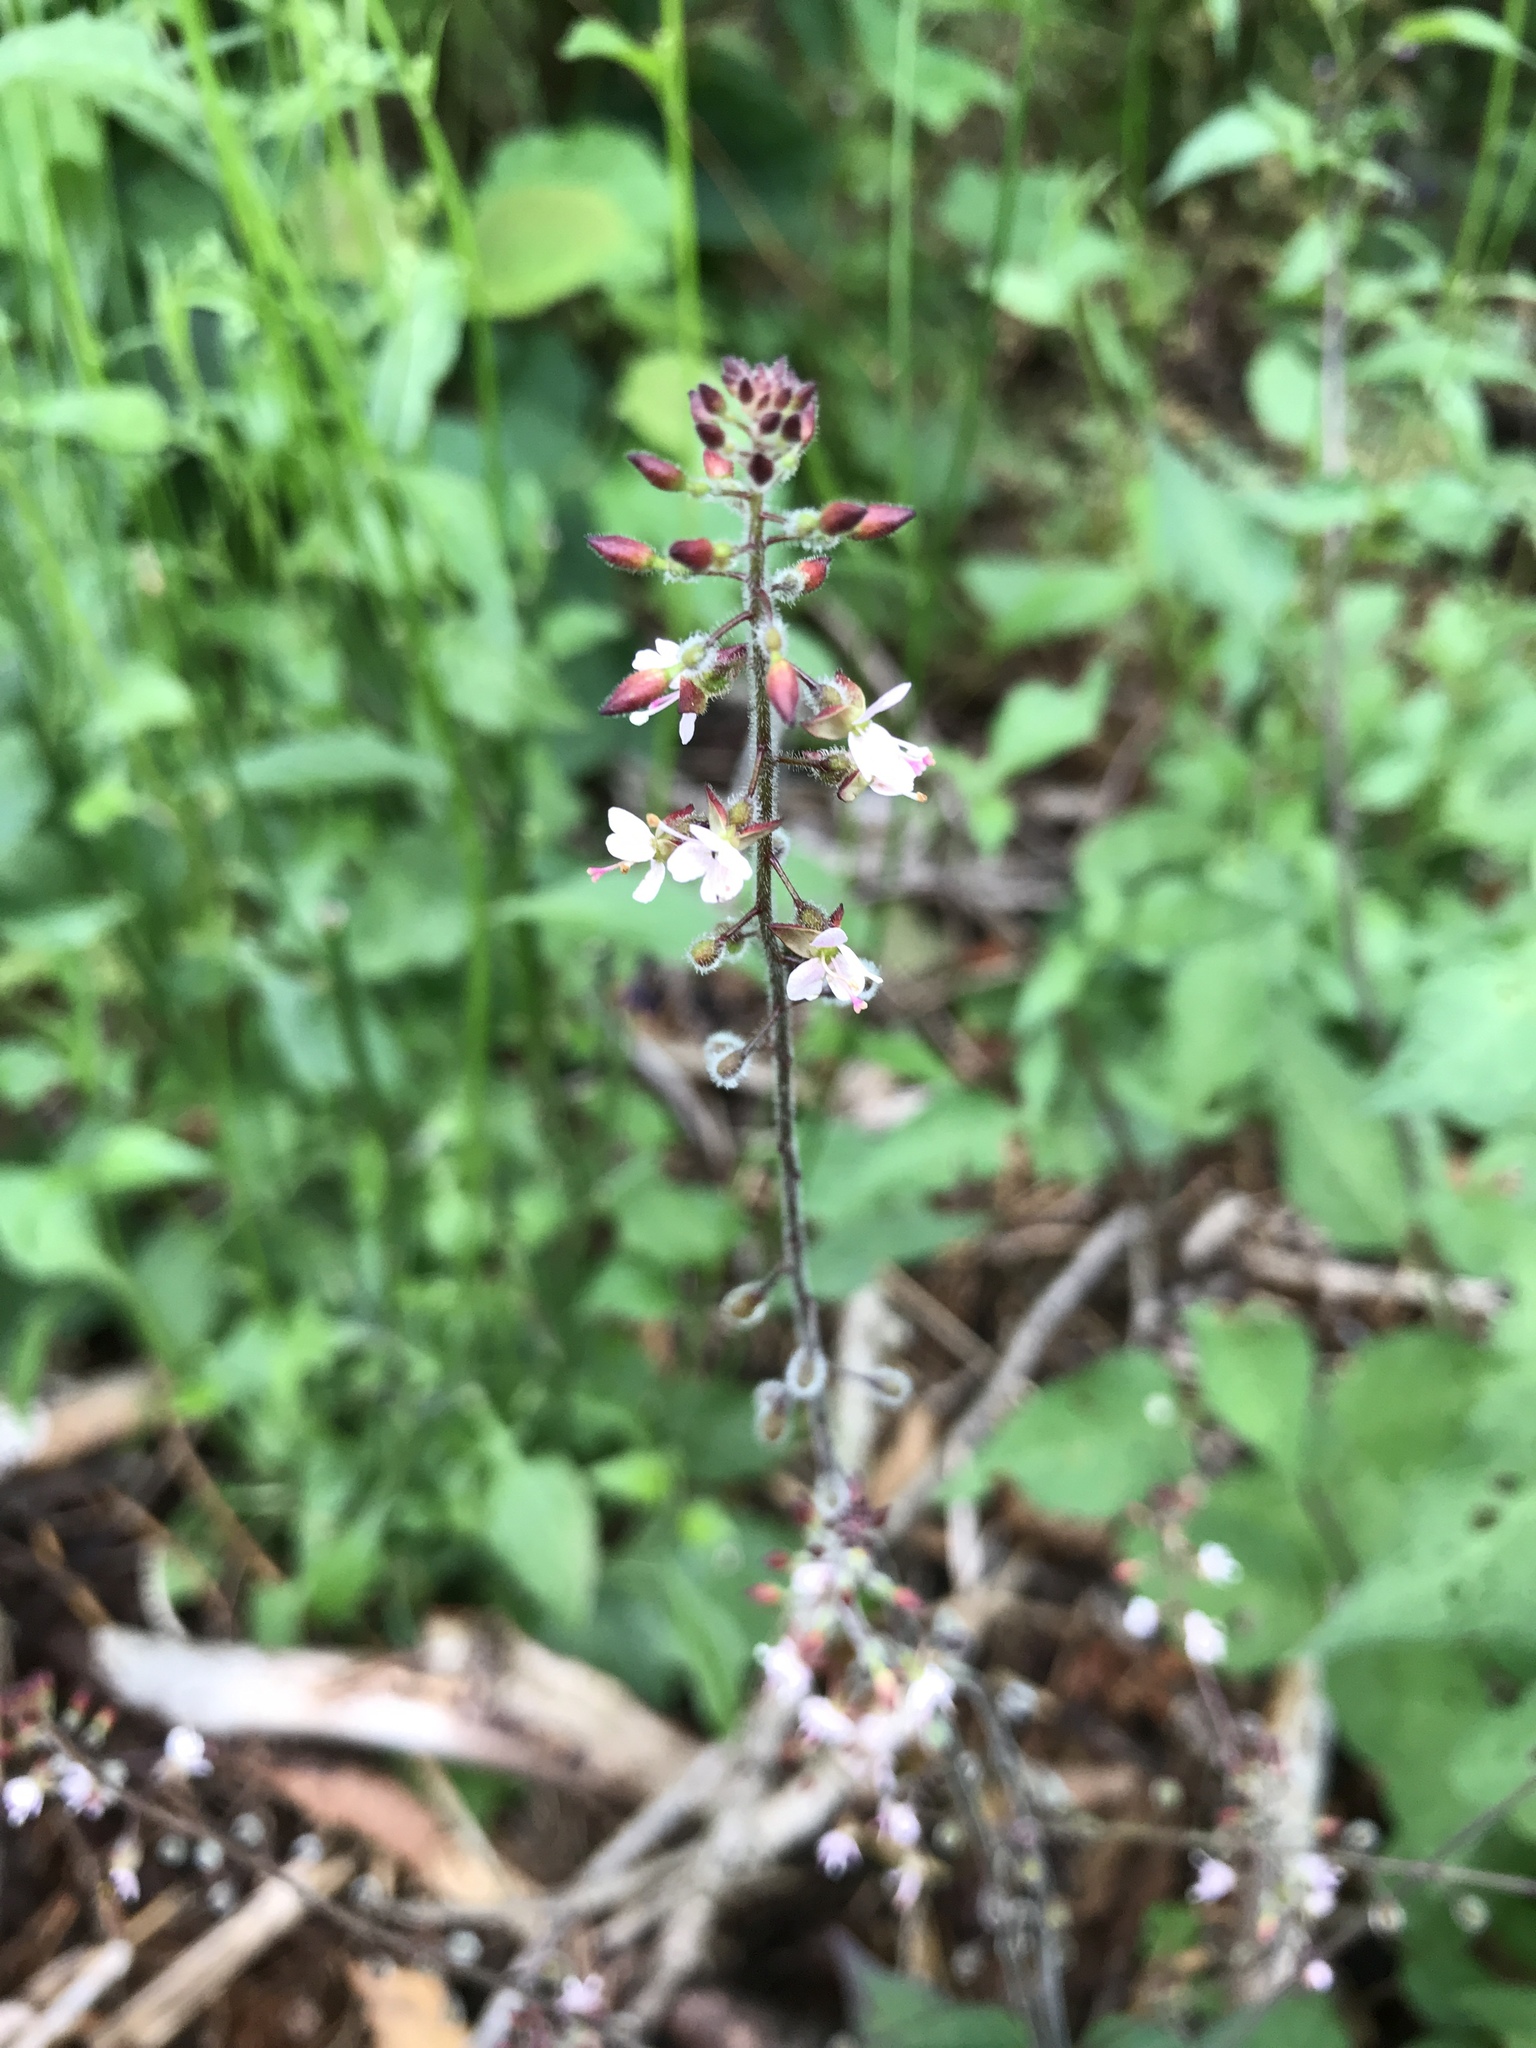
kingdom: Plantae
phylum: Tracheophyta
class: Magnoliopsida
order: Myrtales
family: Onagraceae
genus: Circaea
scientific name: Circaea lutetiana
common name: Enchanter's-nightshade
